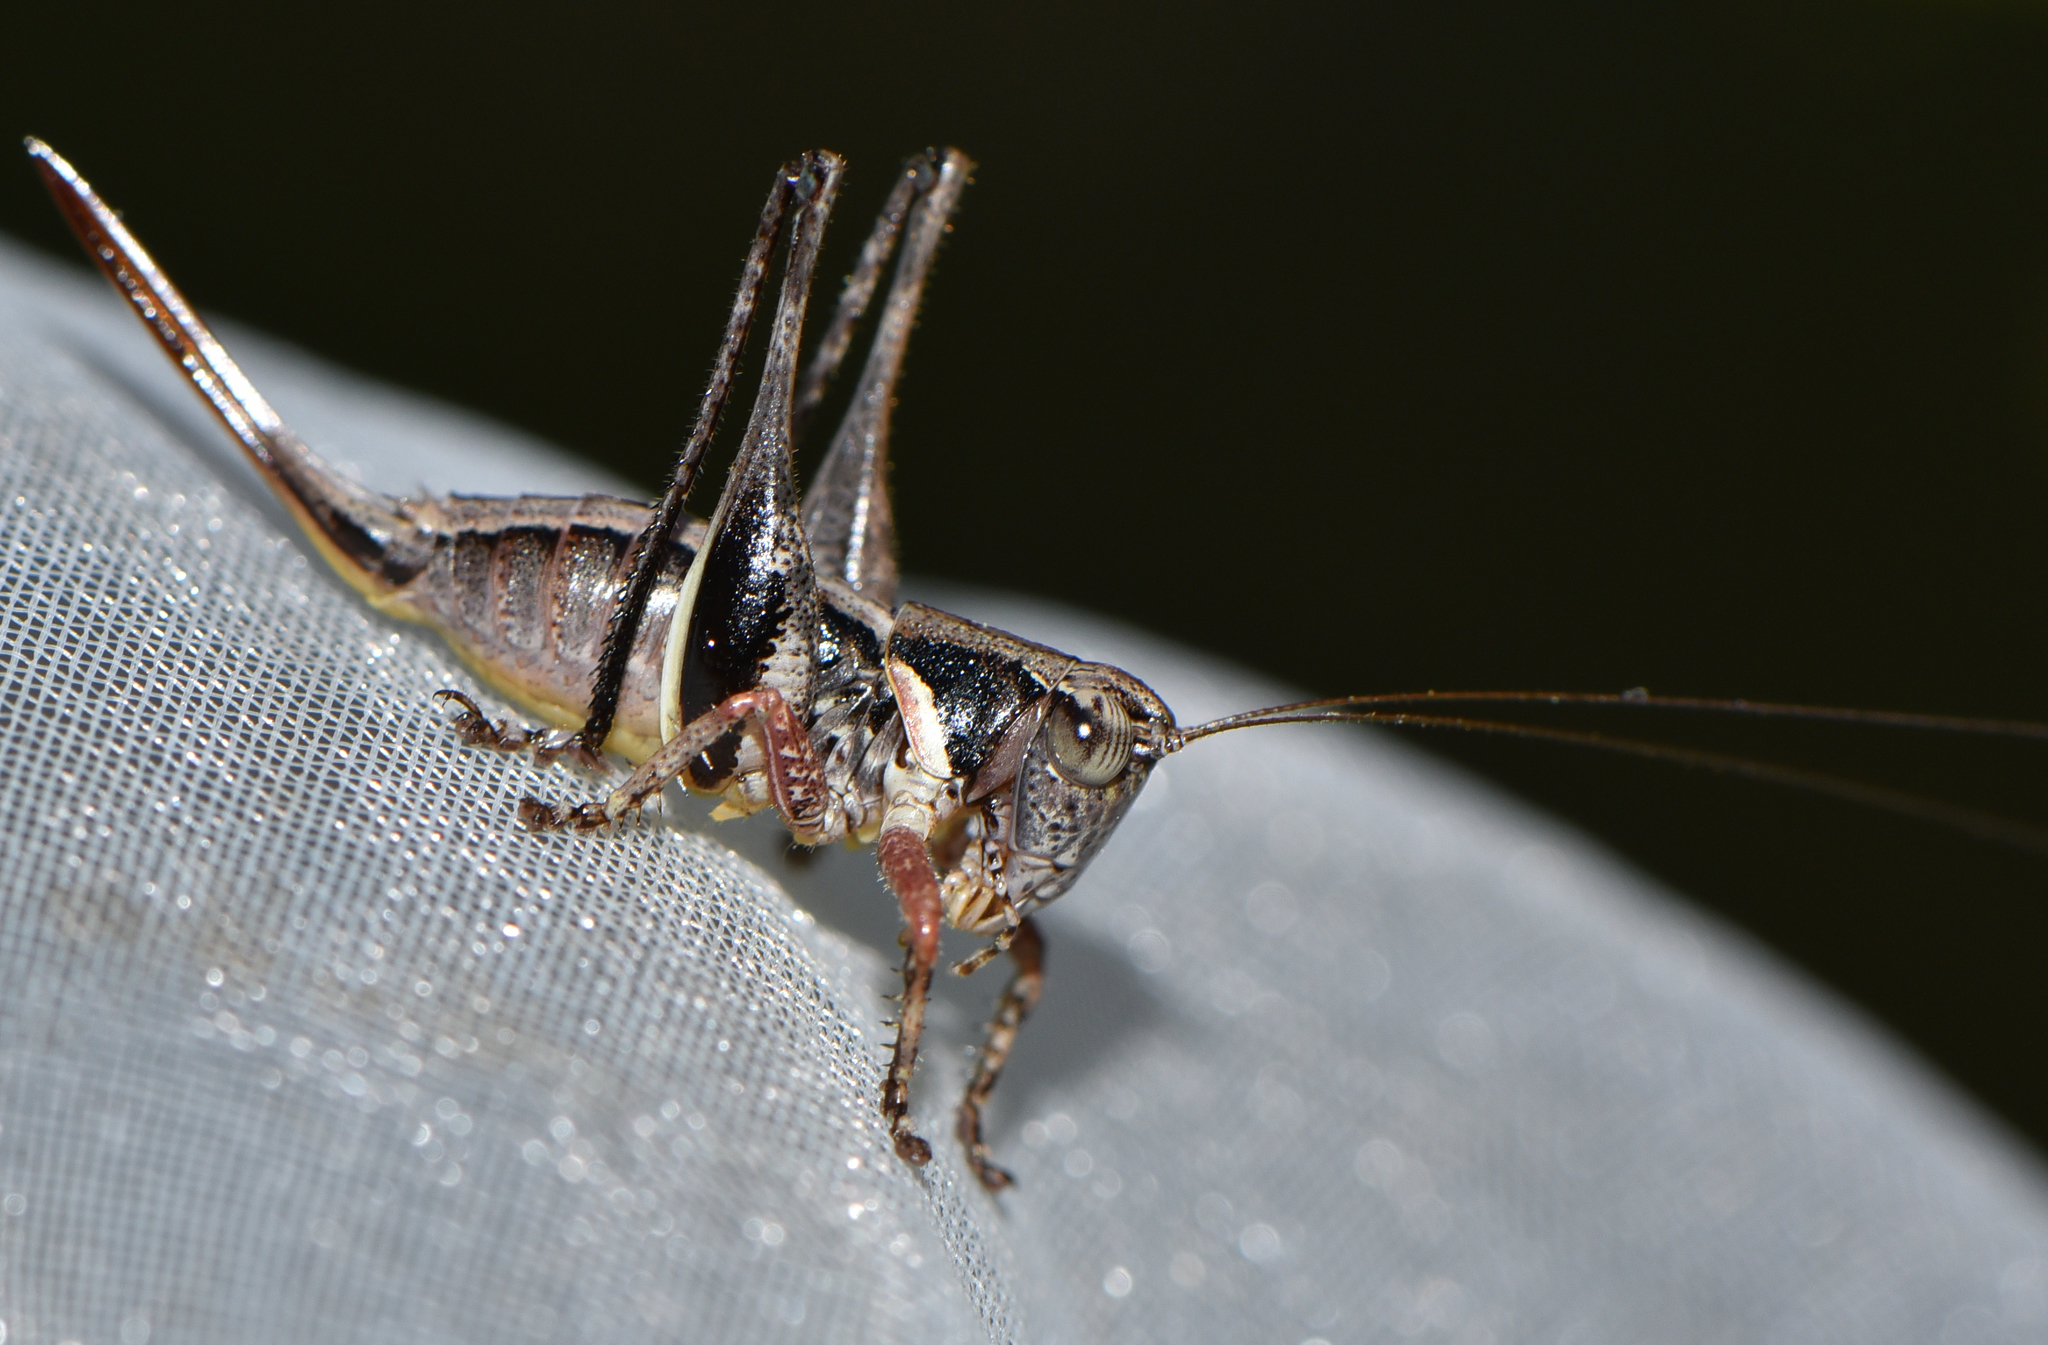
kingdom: Animalia
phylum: Arthropoda
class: Insecta
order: Orthoptera
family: Tettigoniidae
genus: Oligodectoides
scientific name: Oligodectoides tindalei
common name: Tindale's shield-back
